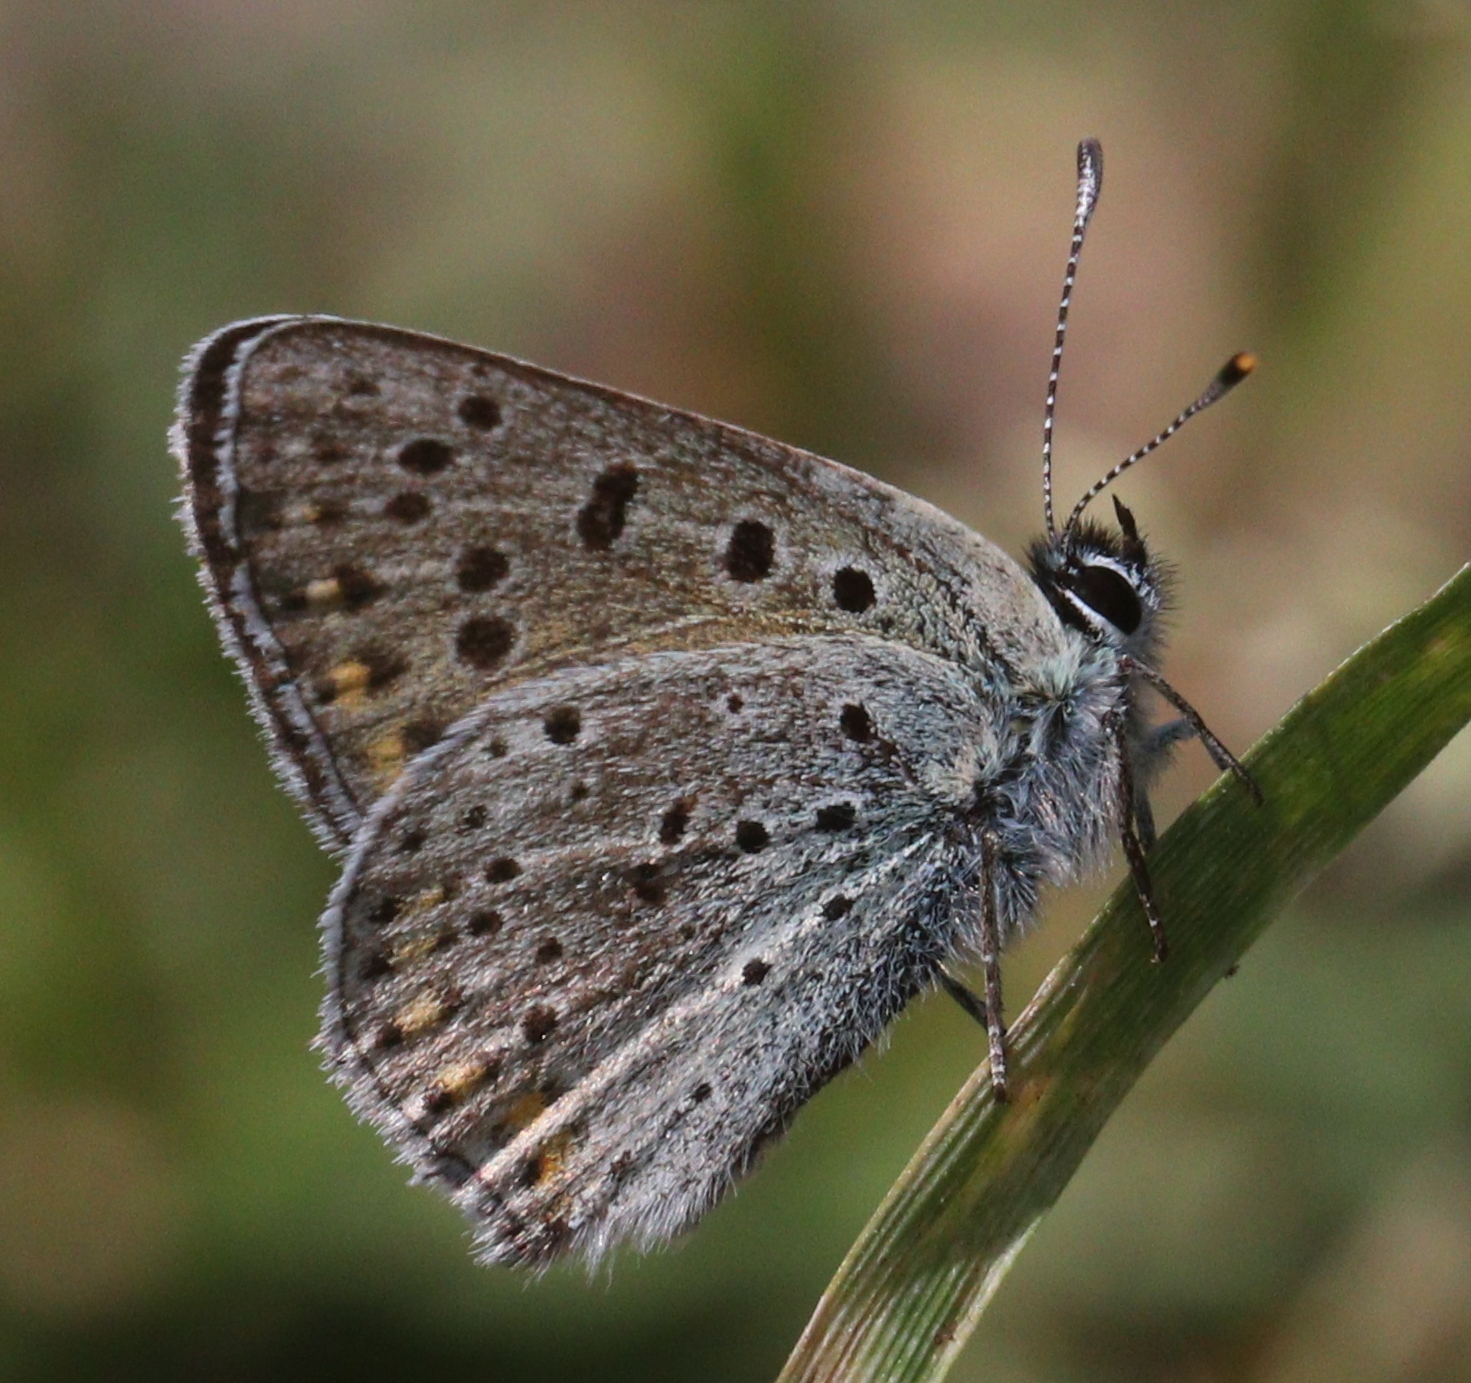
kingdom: Animalia
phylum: Arthropoda
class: Insecta
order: Lepidoptera
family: Lycaenidae
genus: Loweia
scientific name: Loweia tityrus
